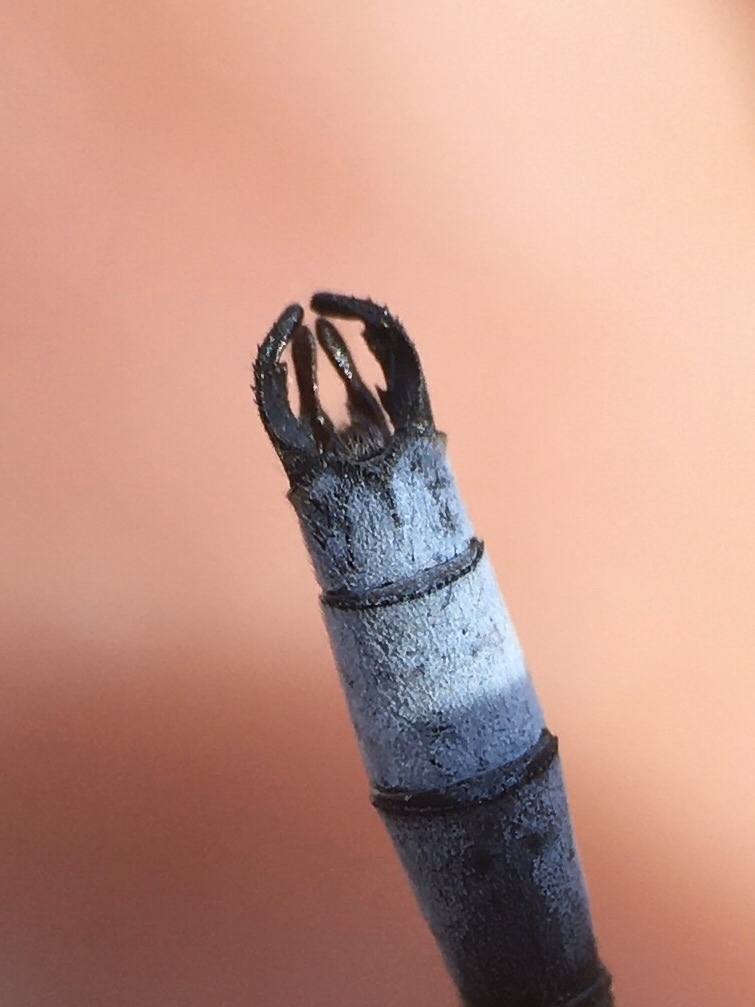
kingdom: Animalia
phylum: Arthropoda
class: Insecta
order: Odonata
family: Lestidae
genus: Lestes
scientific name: Lestes forcipatus
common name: Sweetflag spreadwing
